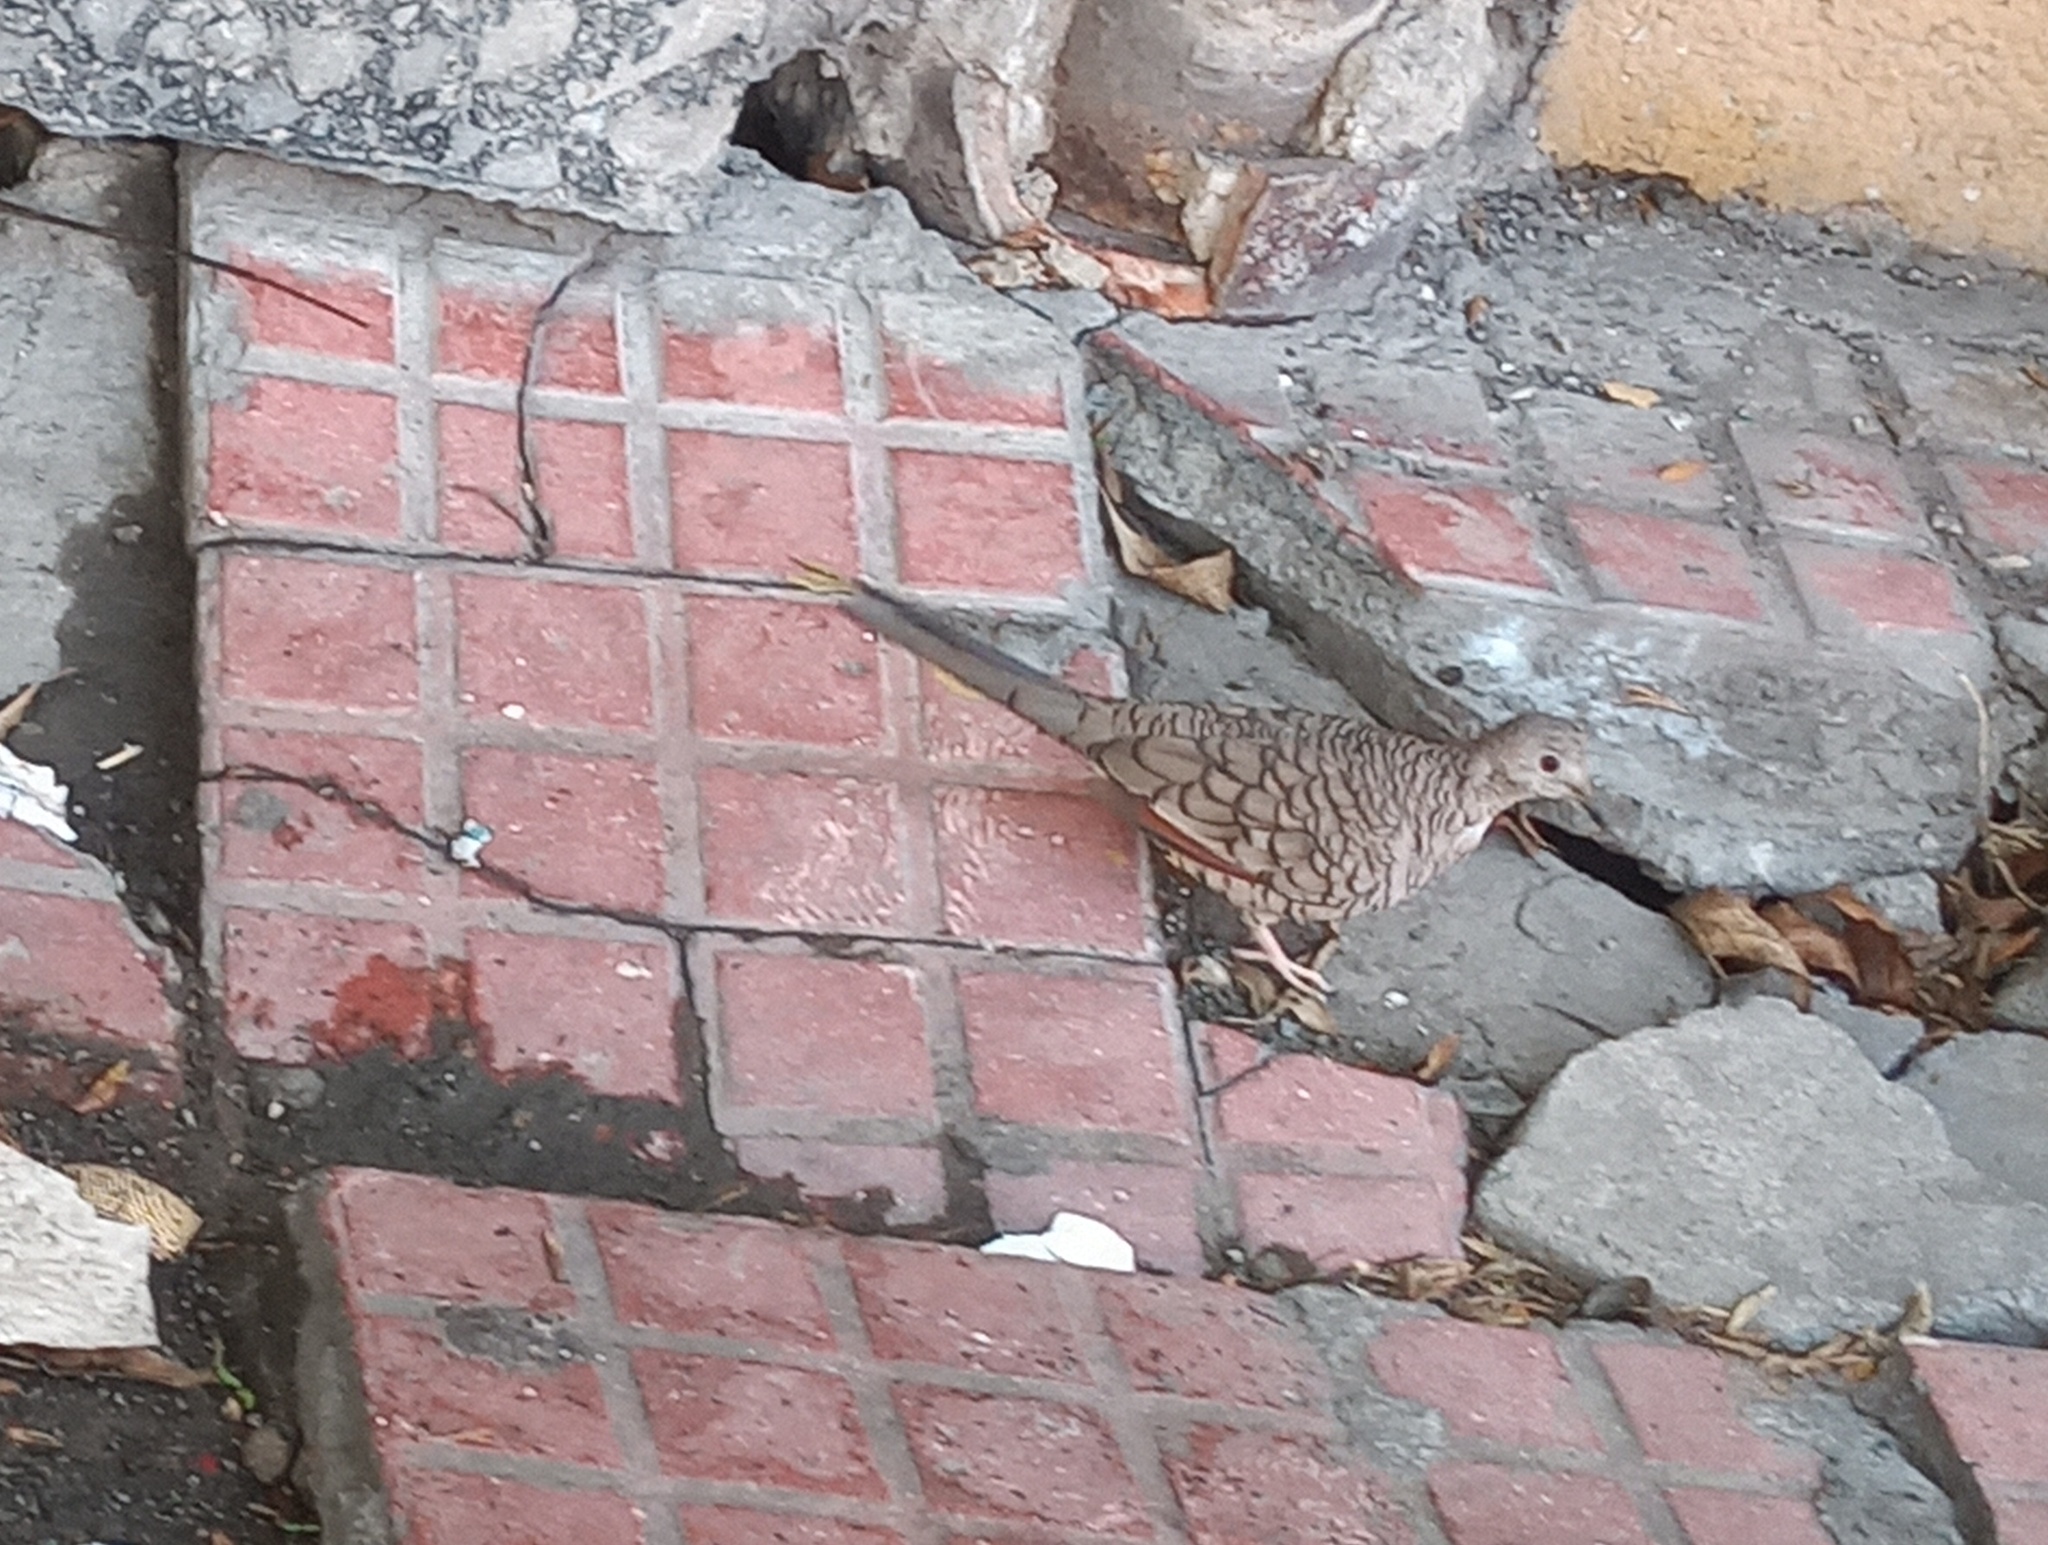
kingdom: Animalia
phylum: Chordata
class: Aves
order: Columbiformes
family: Columbidae
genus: Columbina
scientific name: Columbina inca
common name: Inca dove
